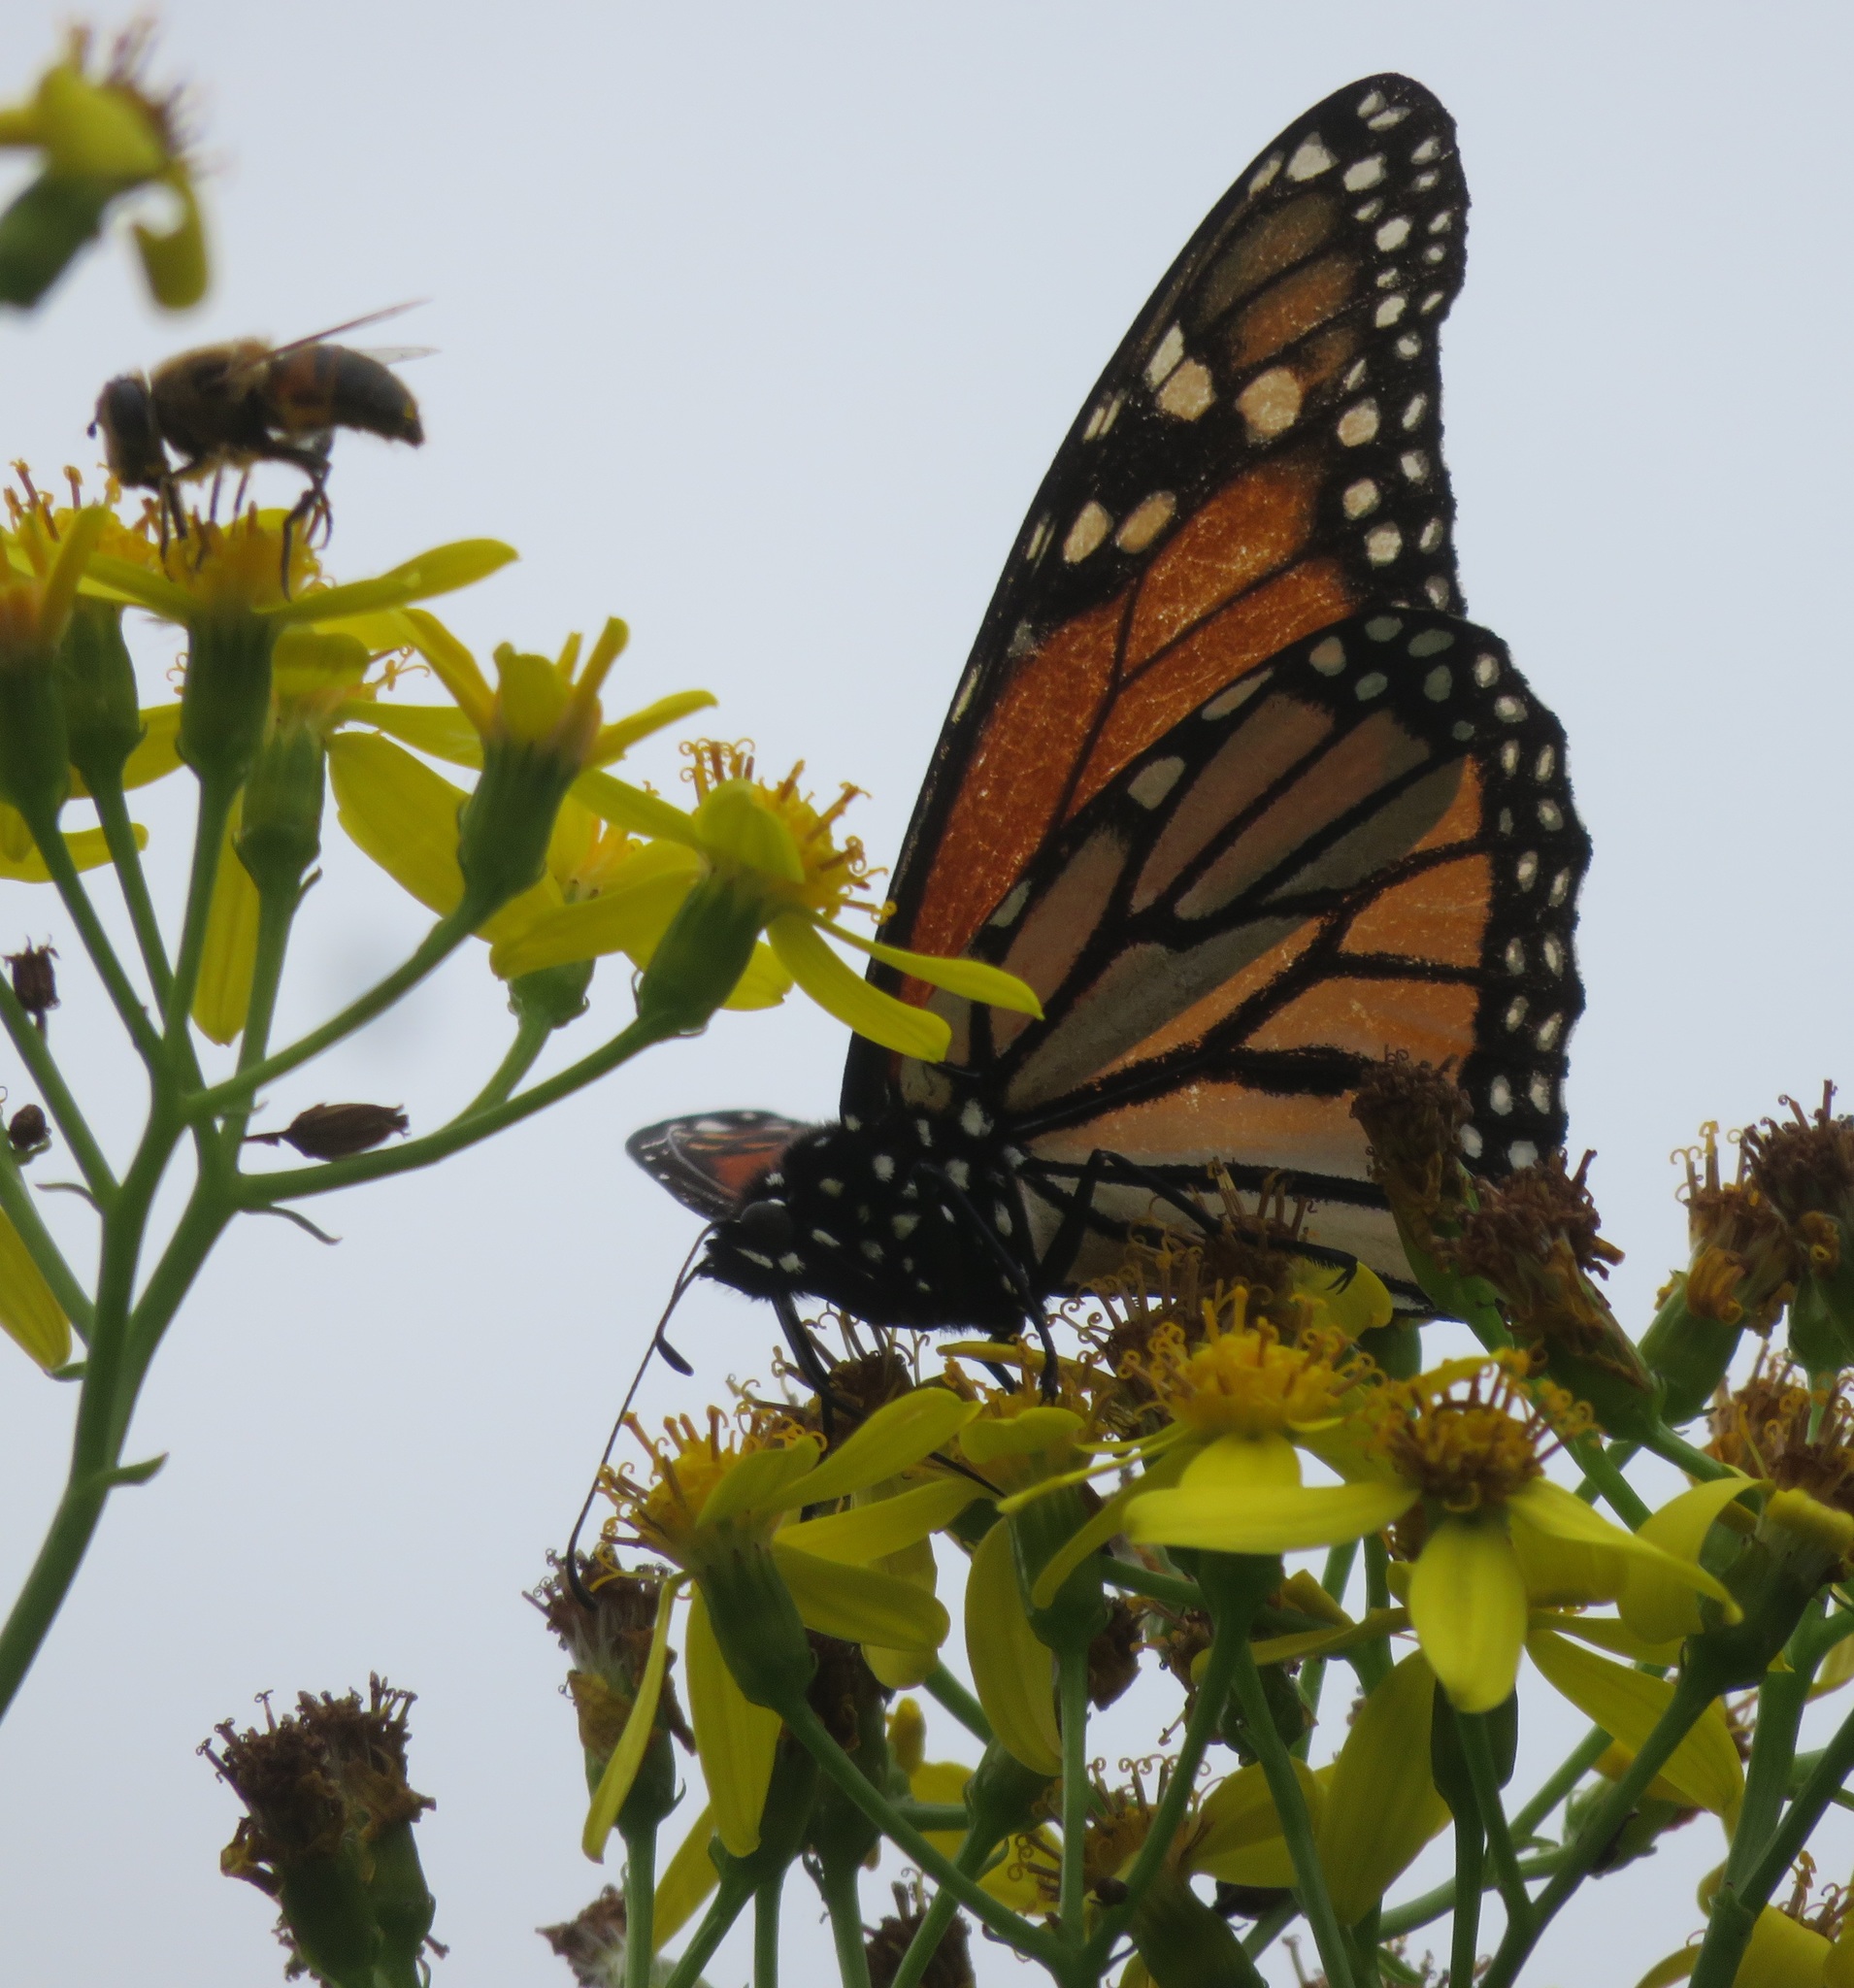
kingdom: Animalia
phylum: Arthropoda
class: Insecta
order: Lepidoptera
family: Nymphalidae
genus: Danaus
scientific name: Danaus plexippus
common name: Monarch
